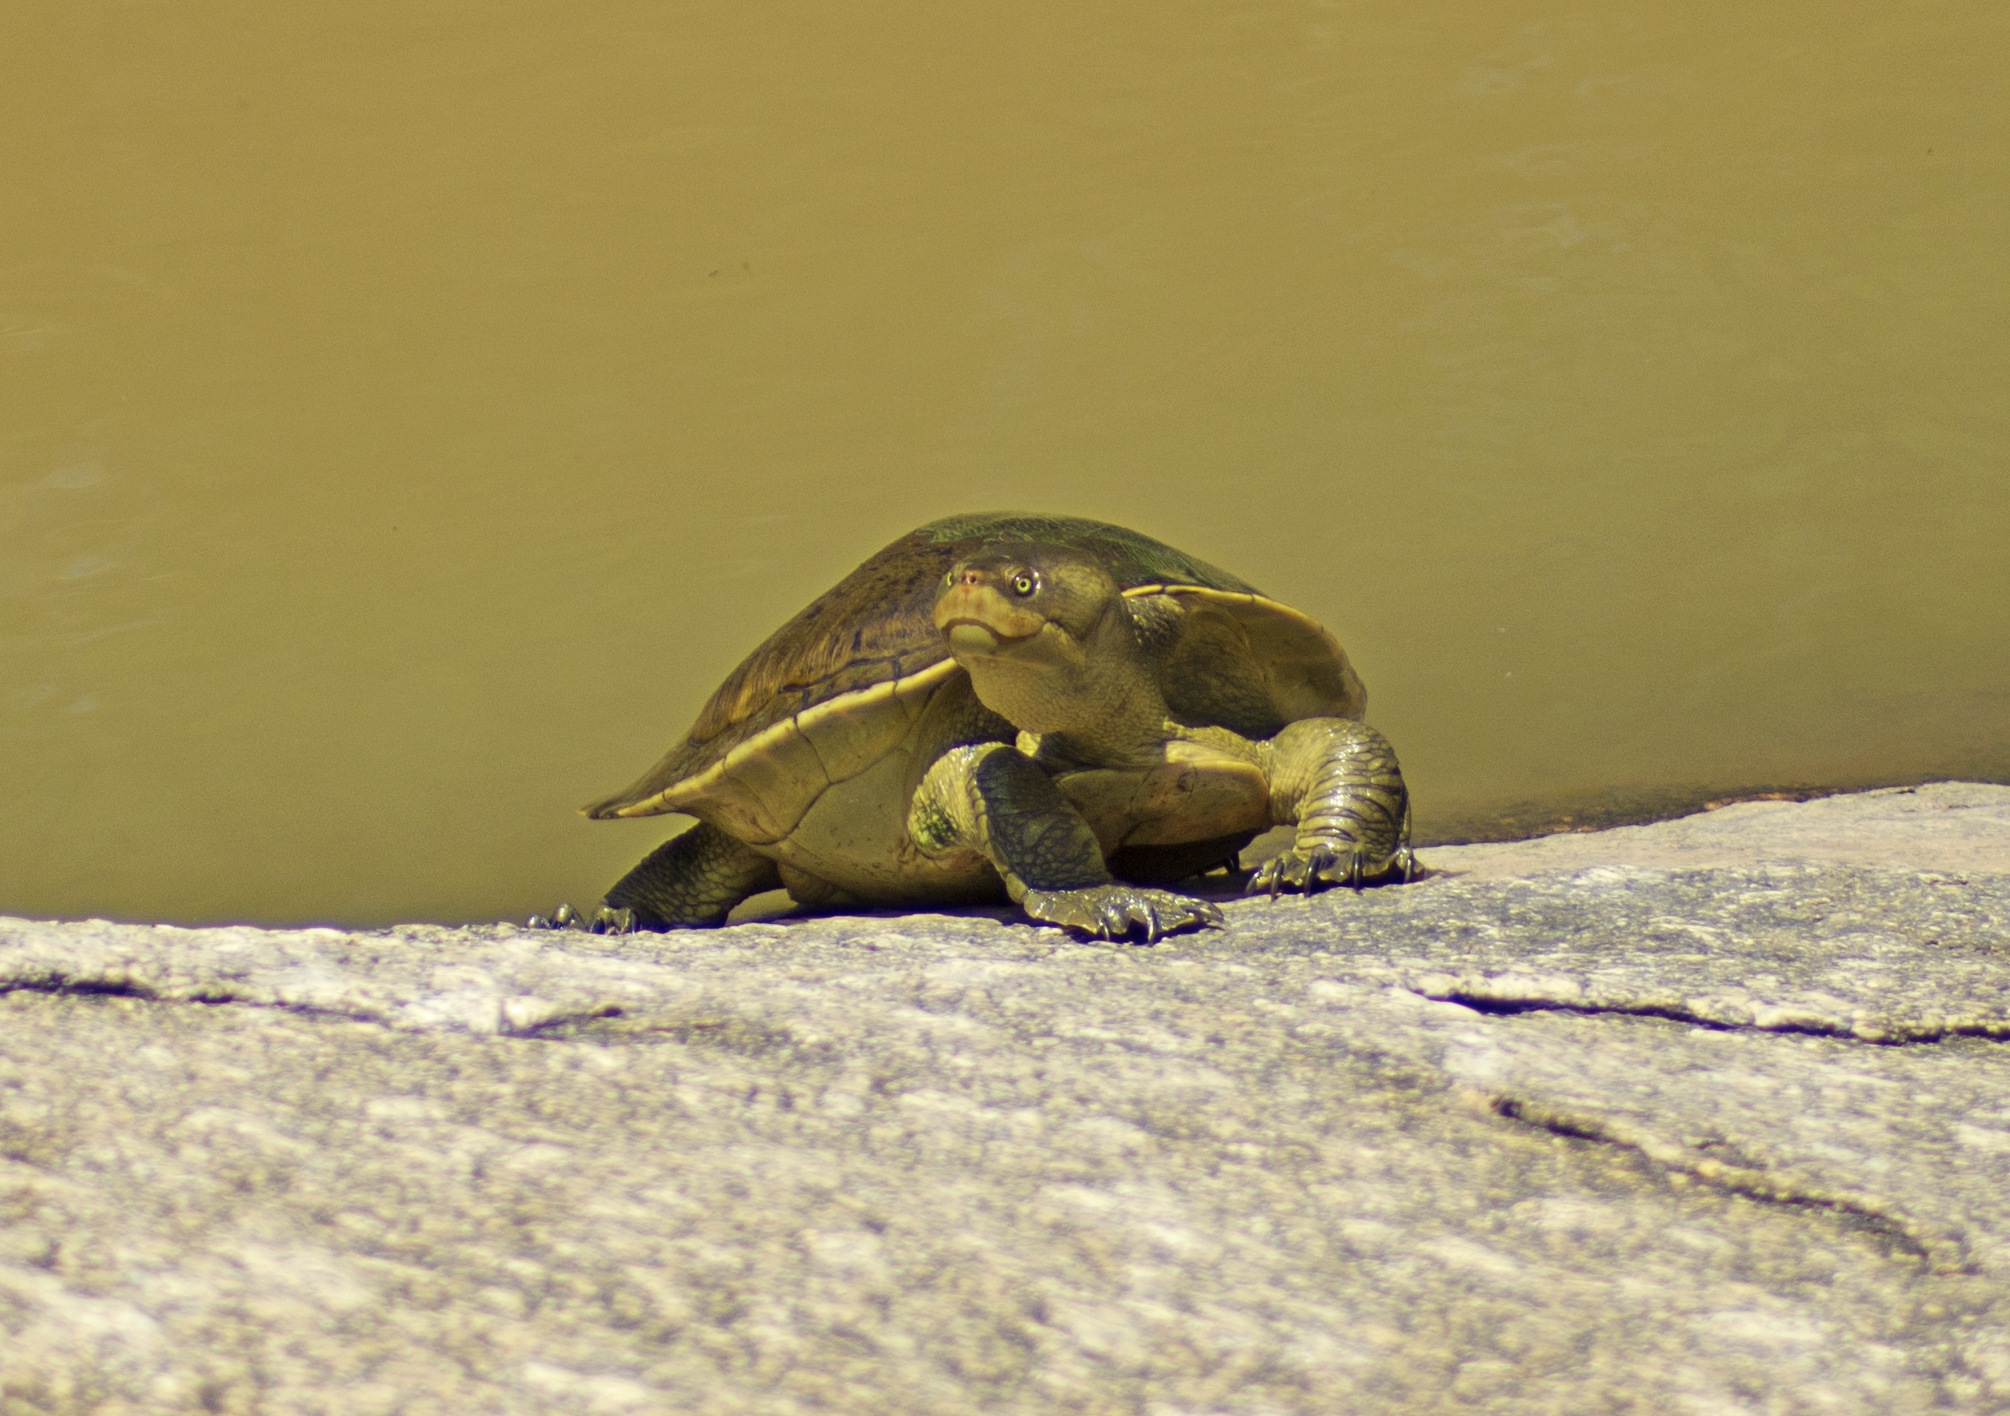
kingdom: Animalia
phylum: Chordata
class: Testudines
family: Chelidae
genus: Emydura
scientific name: Emydura macquarii
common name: Murray river turtle
